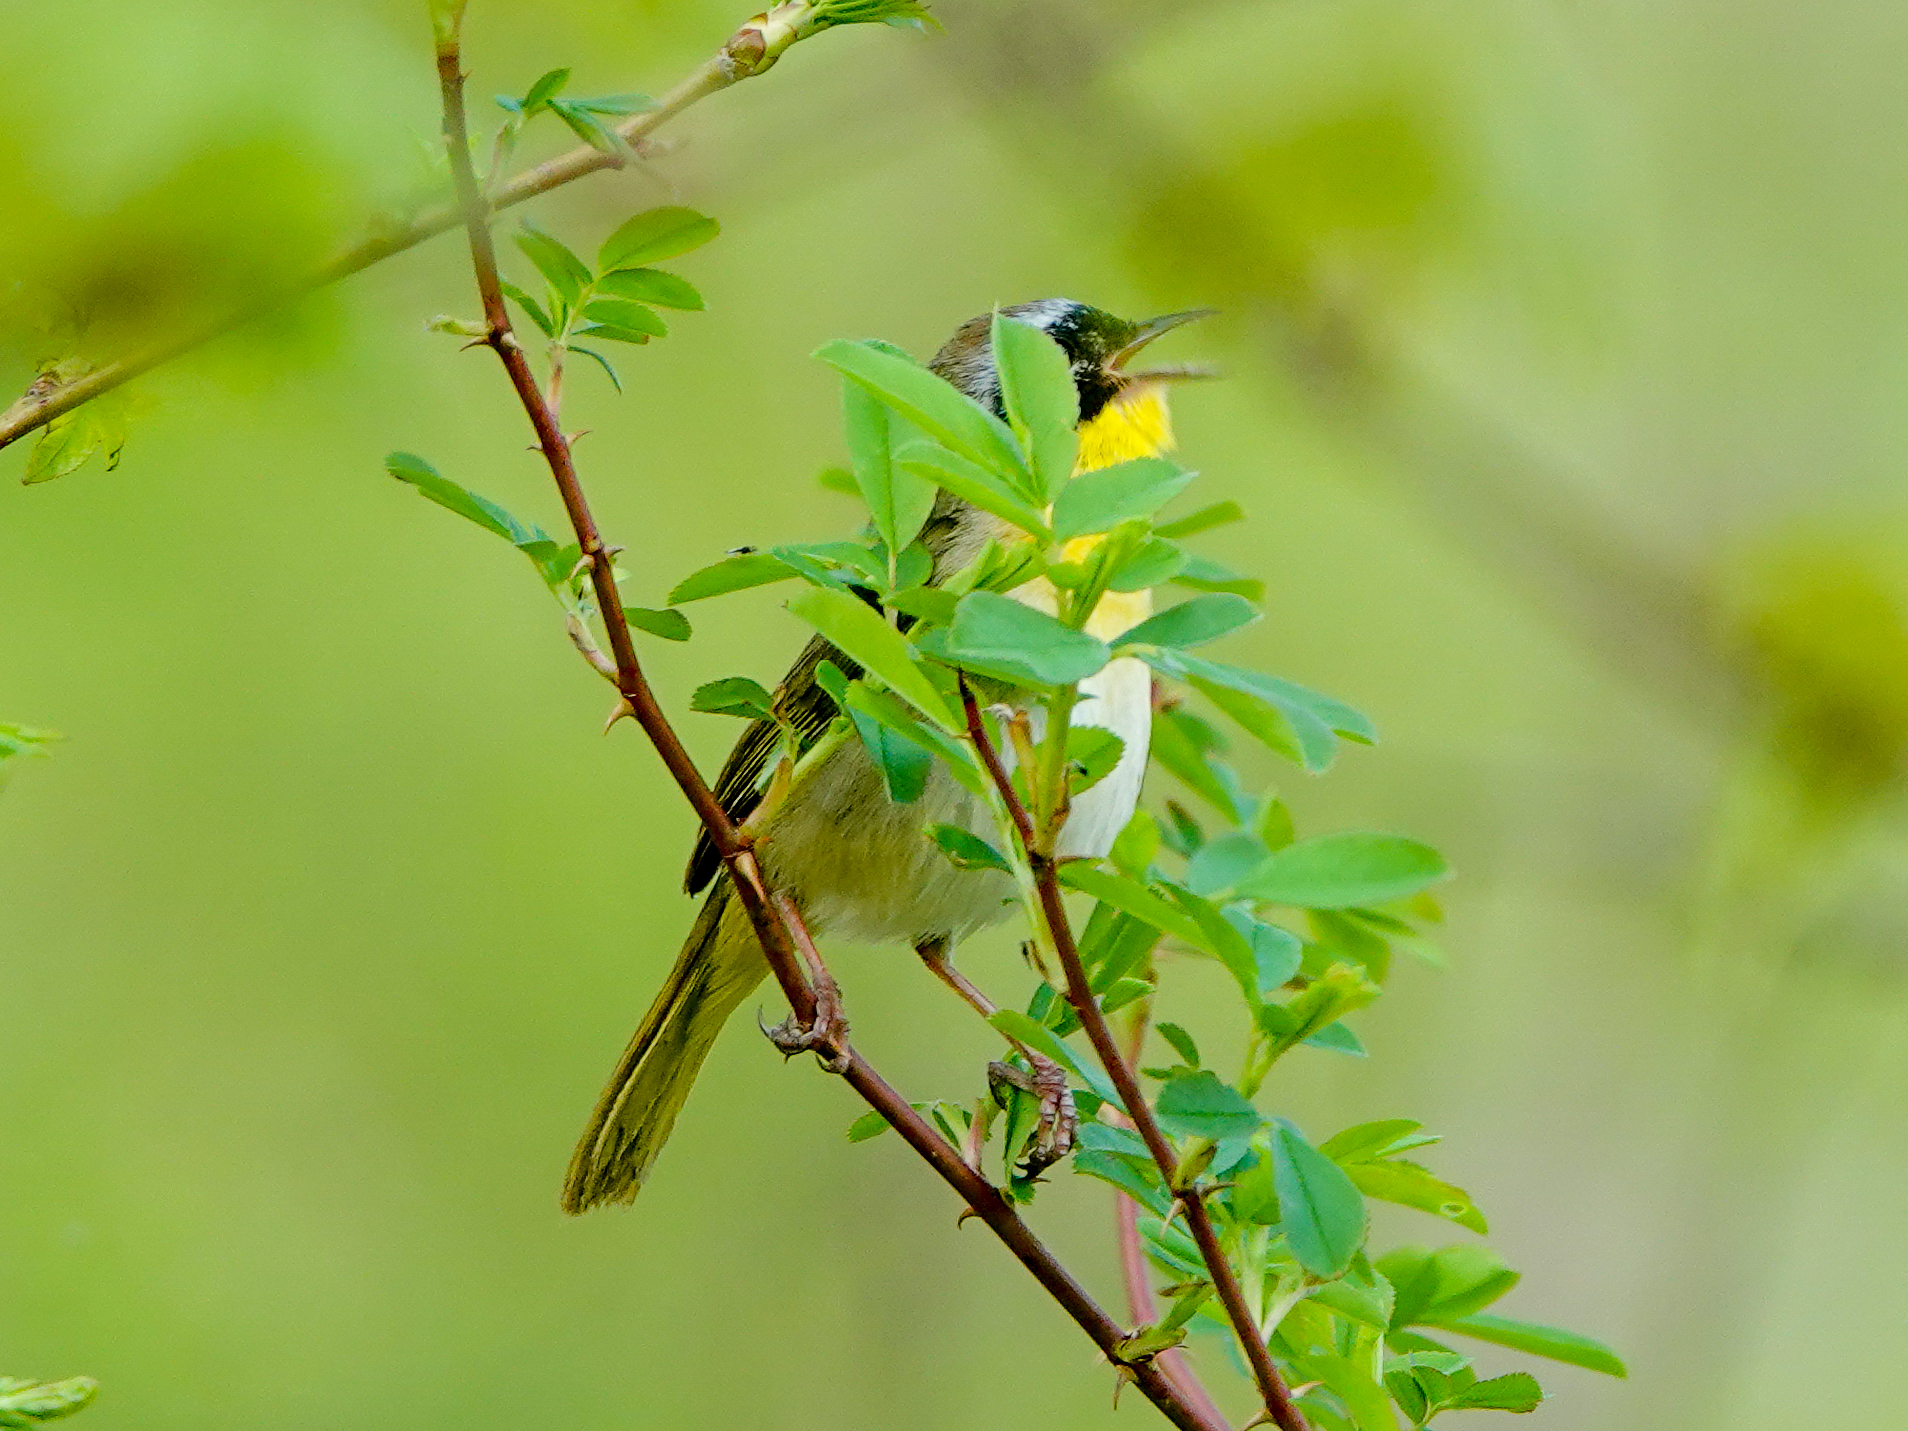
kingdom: Animalia
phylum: Chordata
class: Aves
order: Passeriformes
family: Parulidae
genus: Geothlypis
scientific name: Geothlypis trichas
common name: Common yellowthroat
